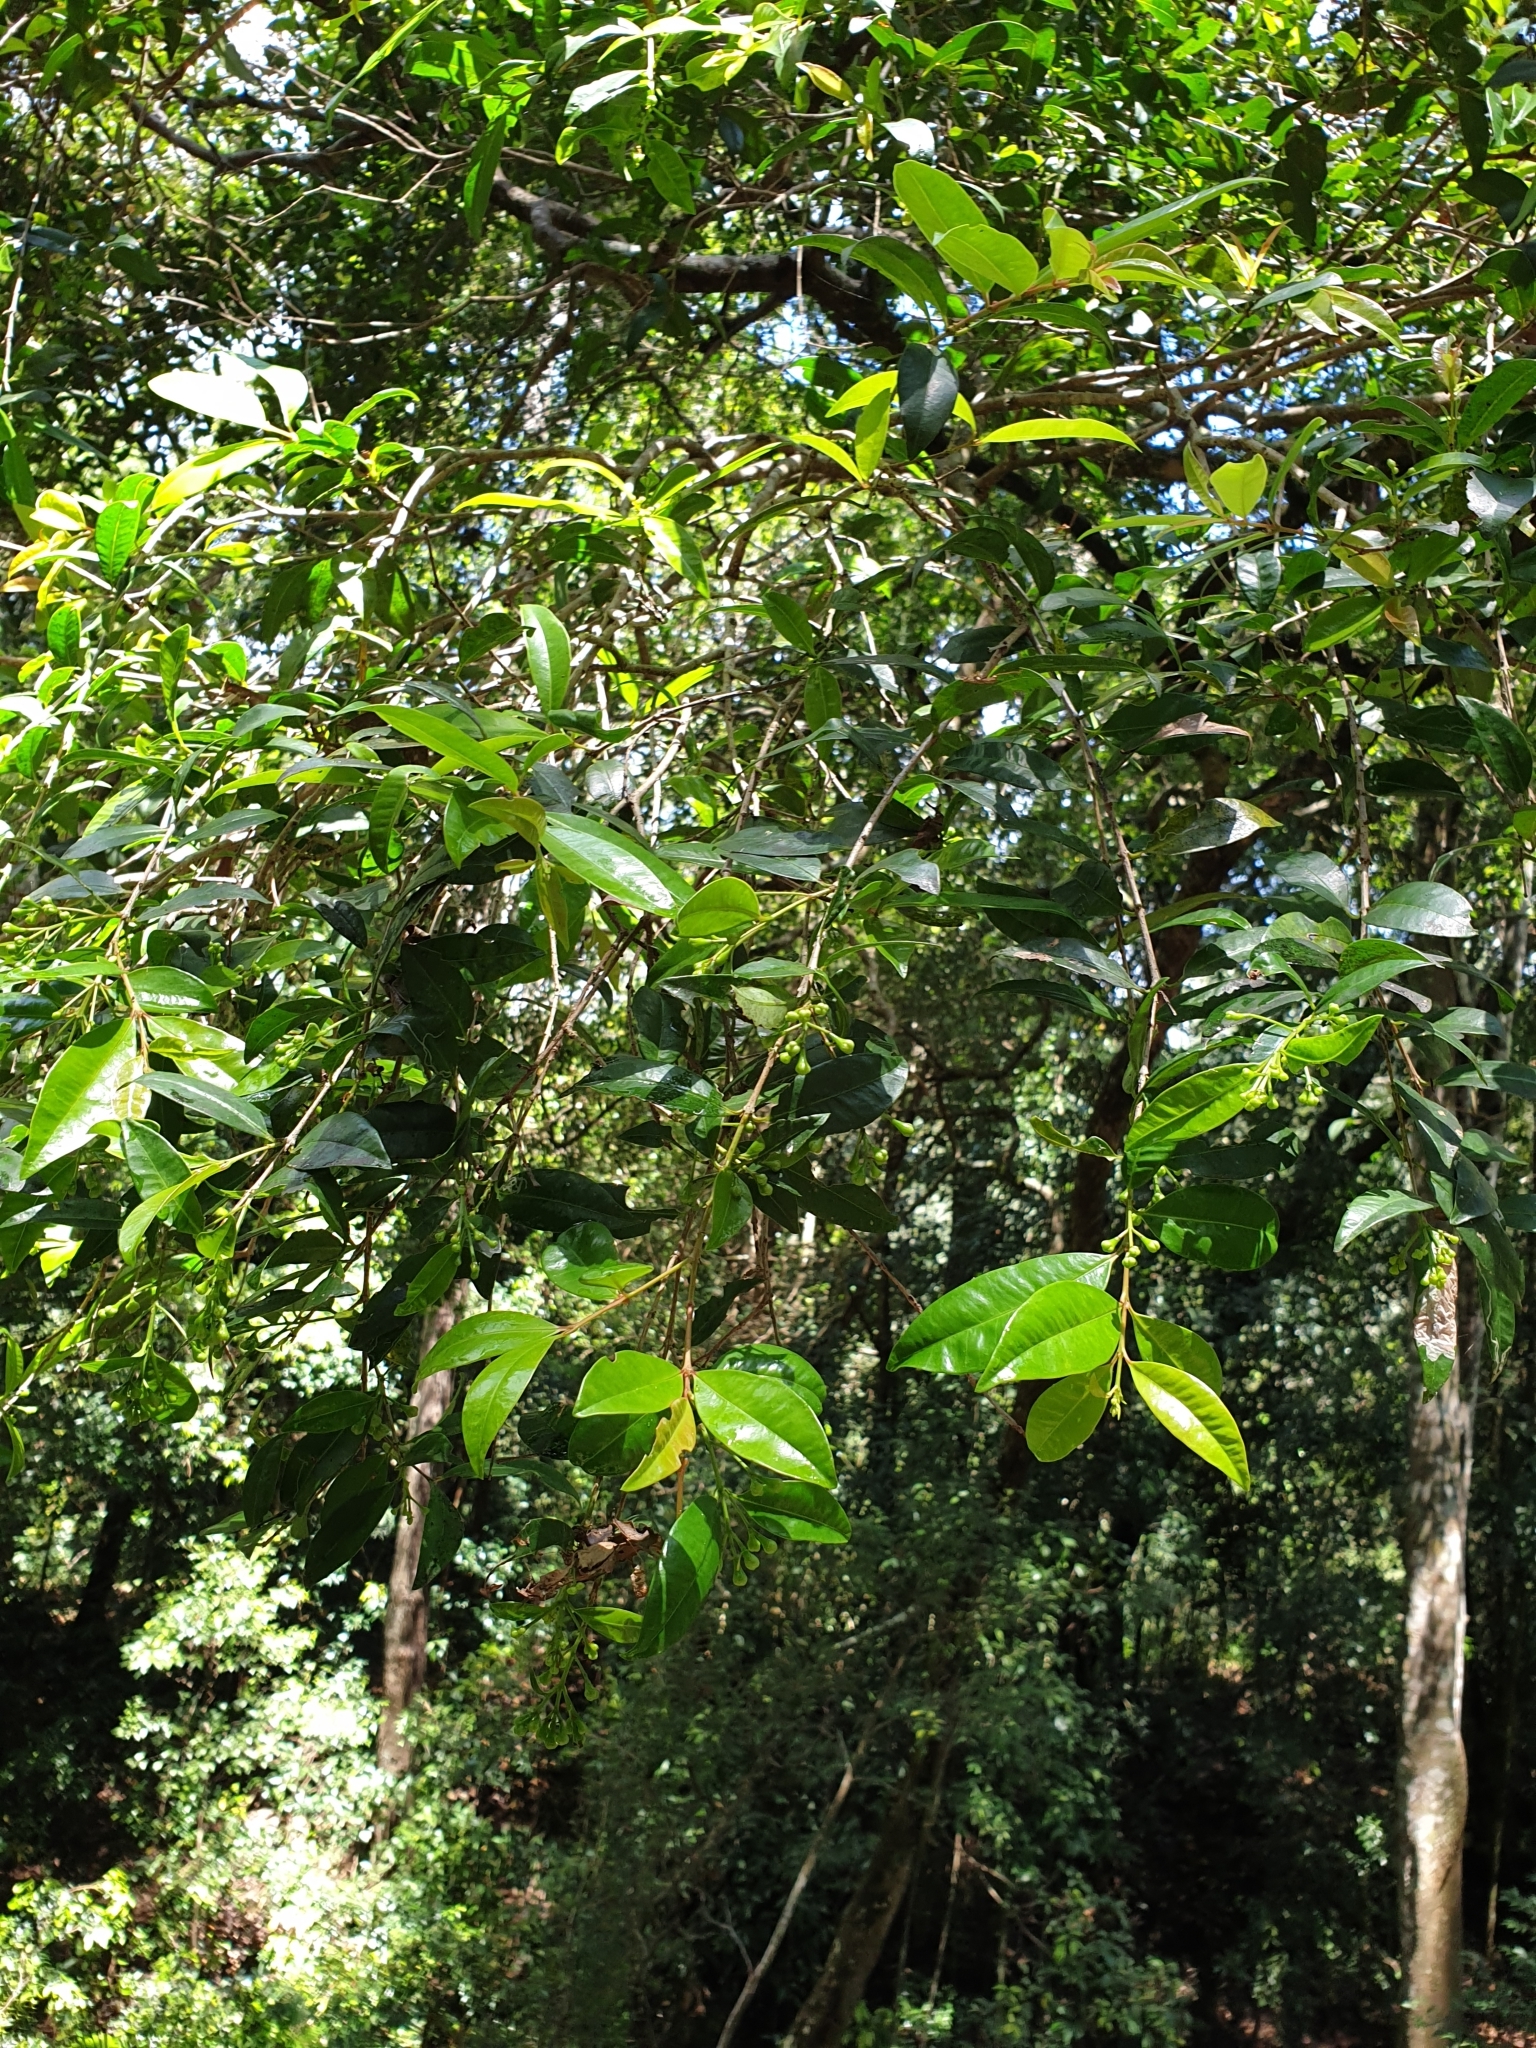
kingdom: Plantae
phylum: Tracheophyta
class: Magnoliopsida
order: Myrtales
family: Myrtaceae
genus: Syzygium
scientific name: Syzygium australe
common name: Australian brush-cherry
